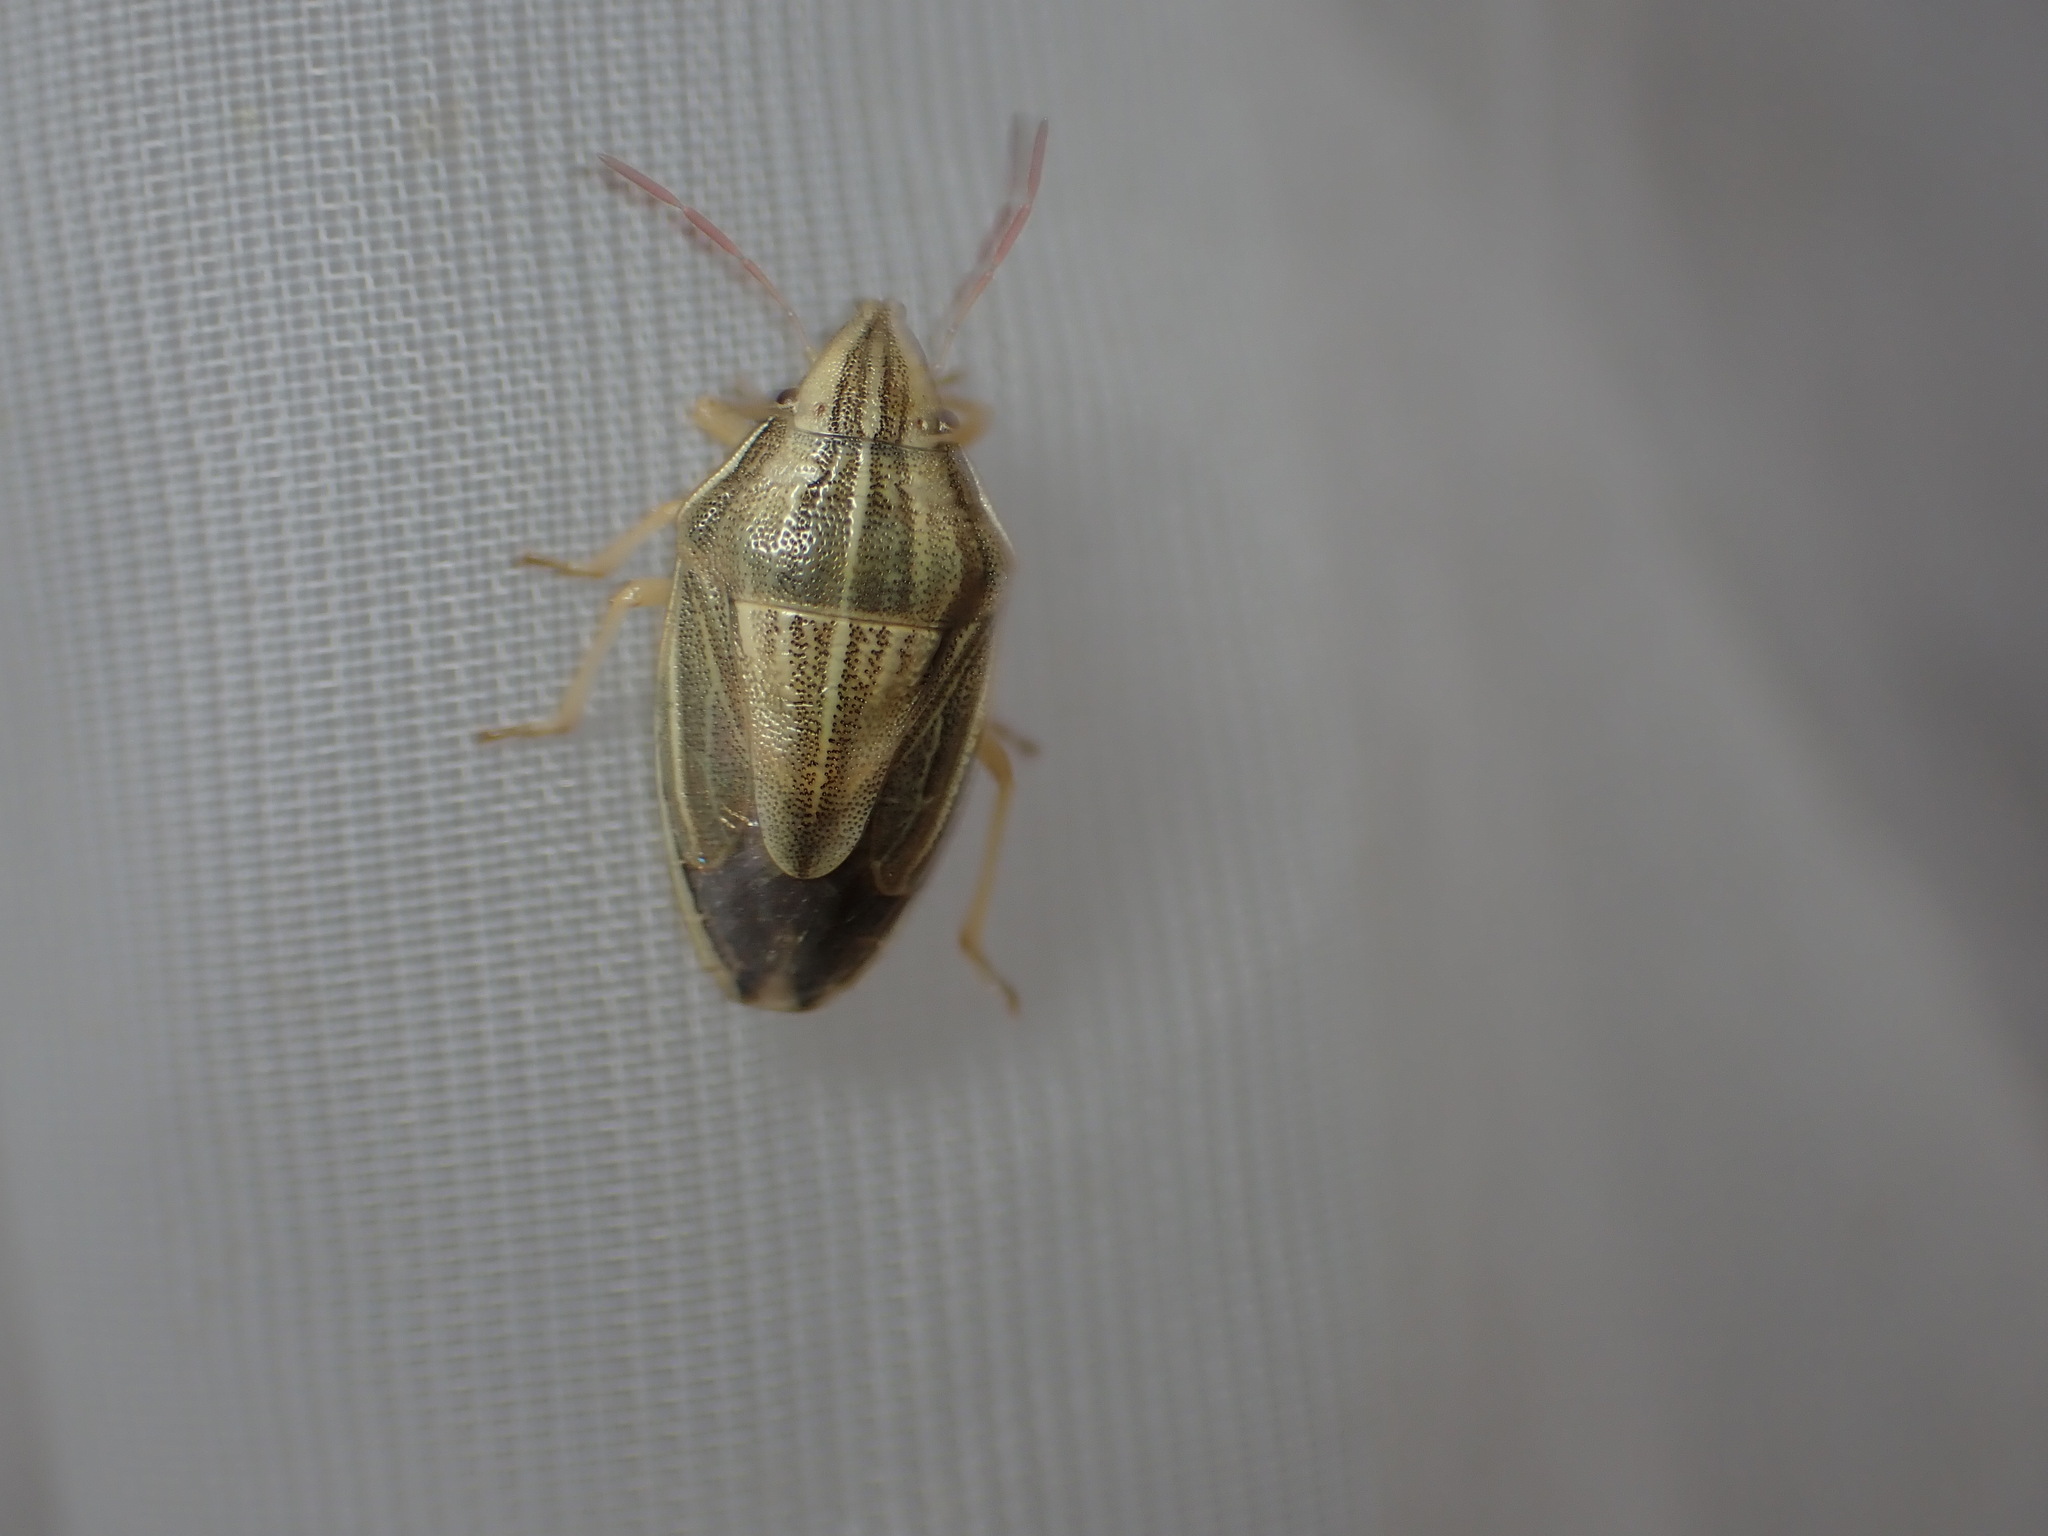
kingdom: Animalia
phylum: Arthropoda
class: Insecta
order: Hemiptera
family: Pentatomidae
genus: Aelia
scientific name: Aelia acuminata
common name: Bishop's mitre
